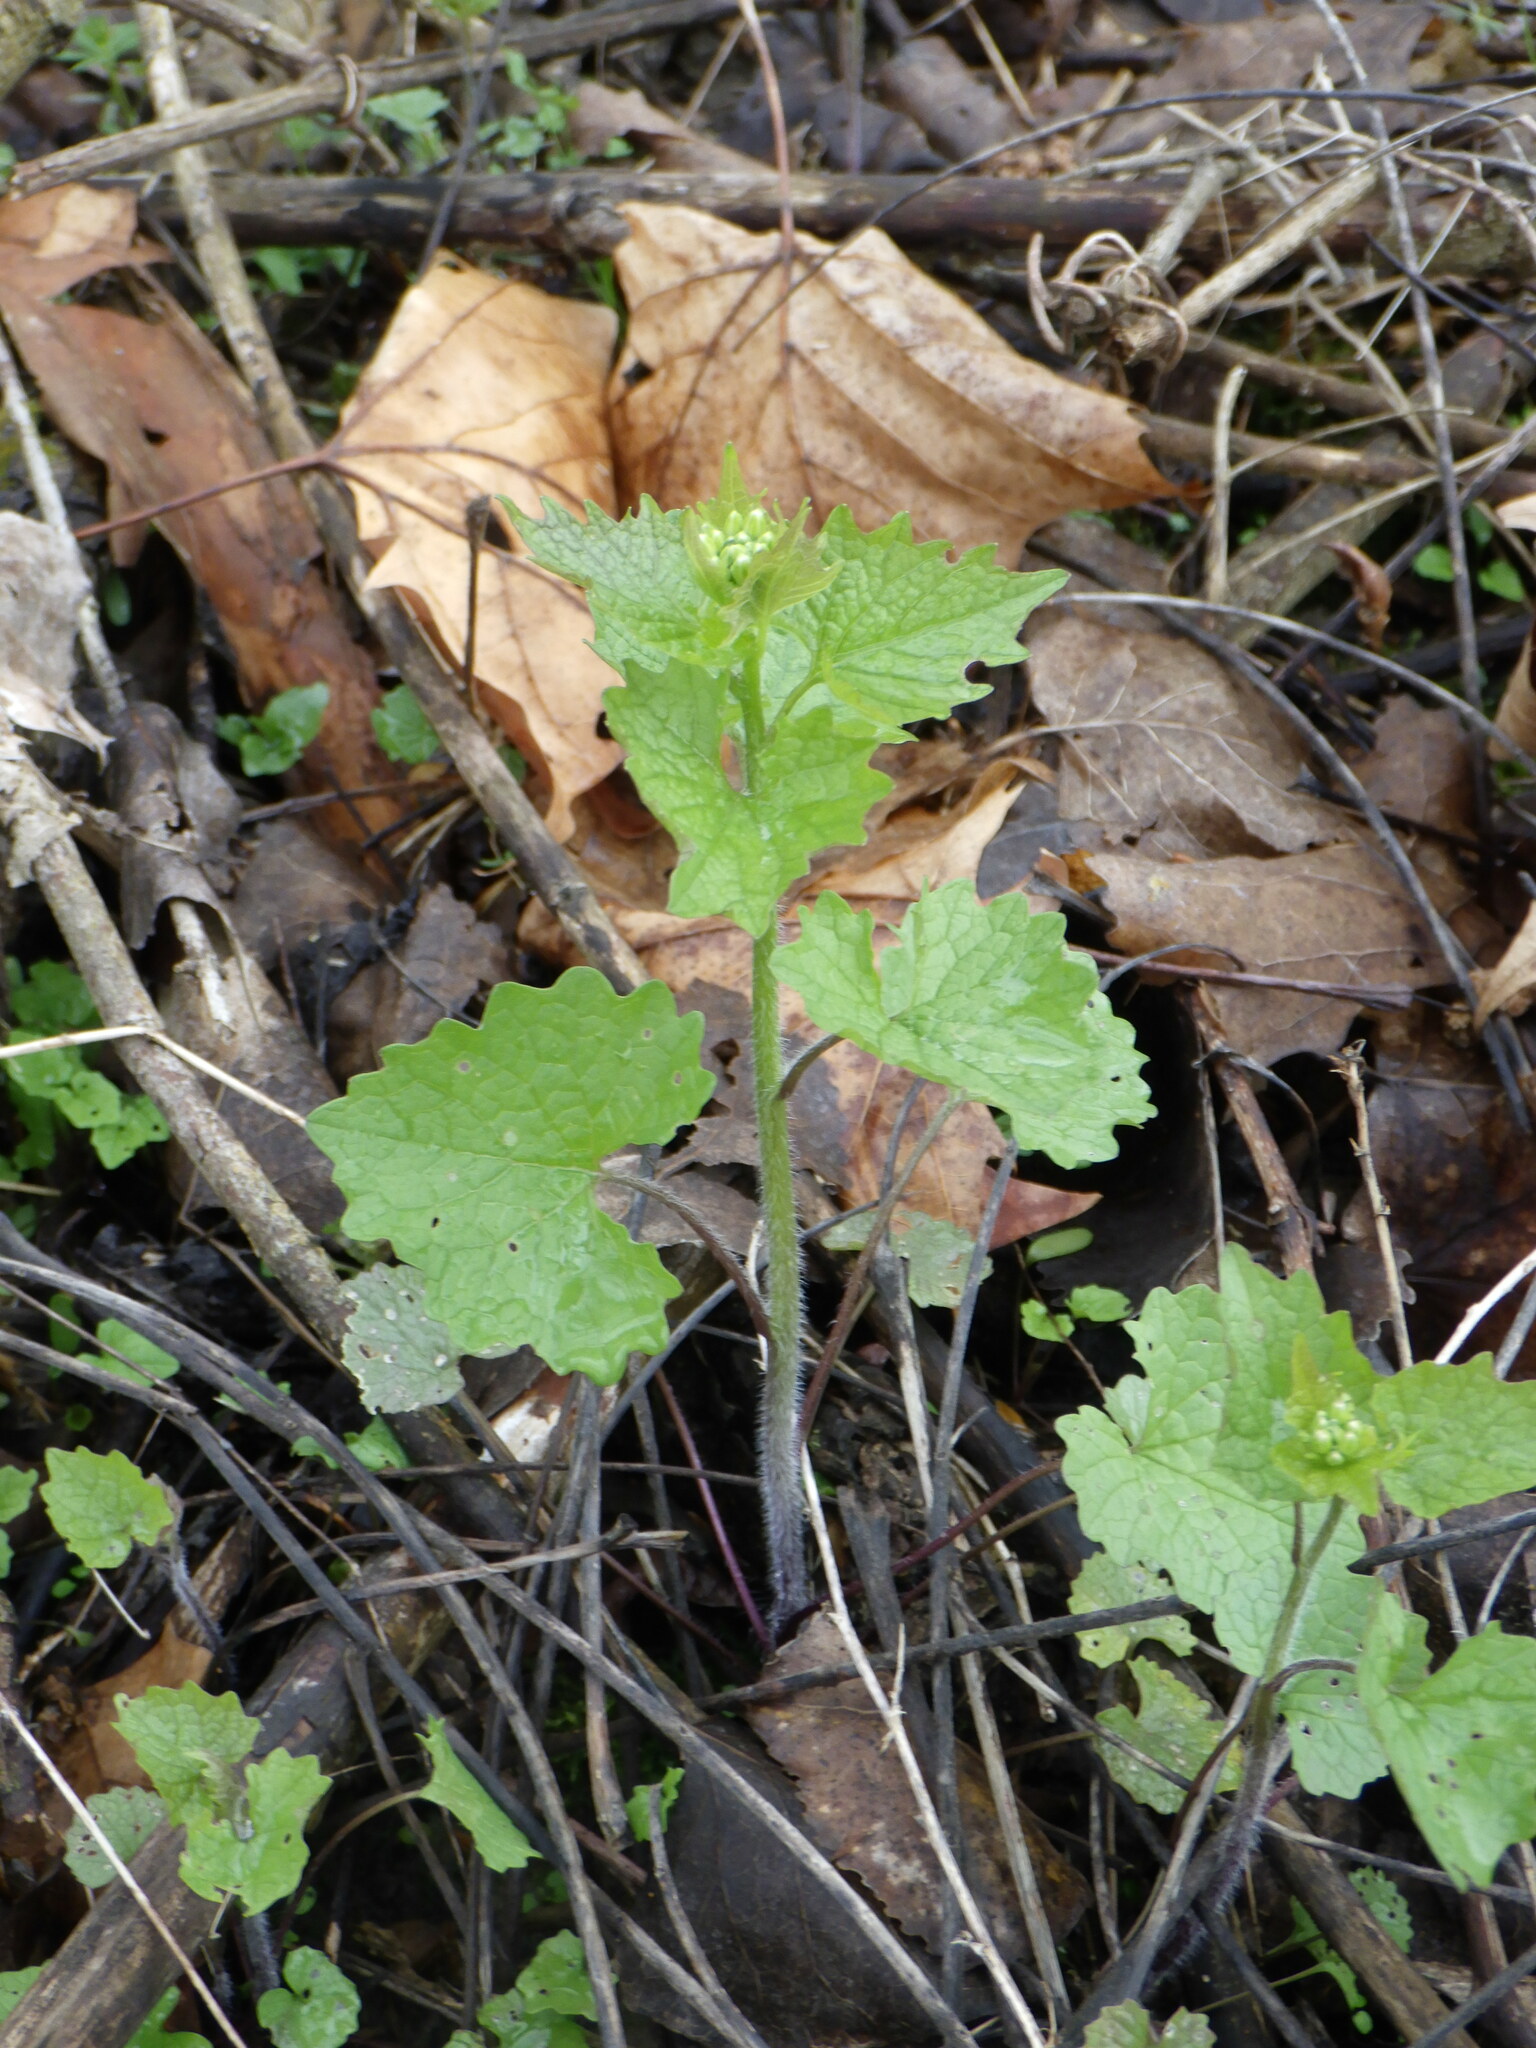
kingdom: Plantae
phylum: Tracheophyta
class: Magnoliopsida
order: Brassicales
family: Brassicaceae
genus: Alliaria
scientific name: Alliaria petiolata
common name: Garlic mustard
